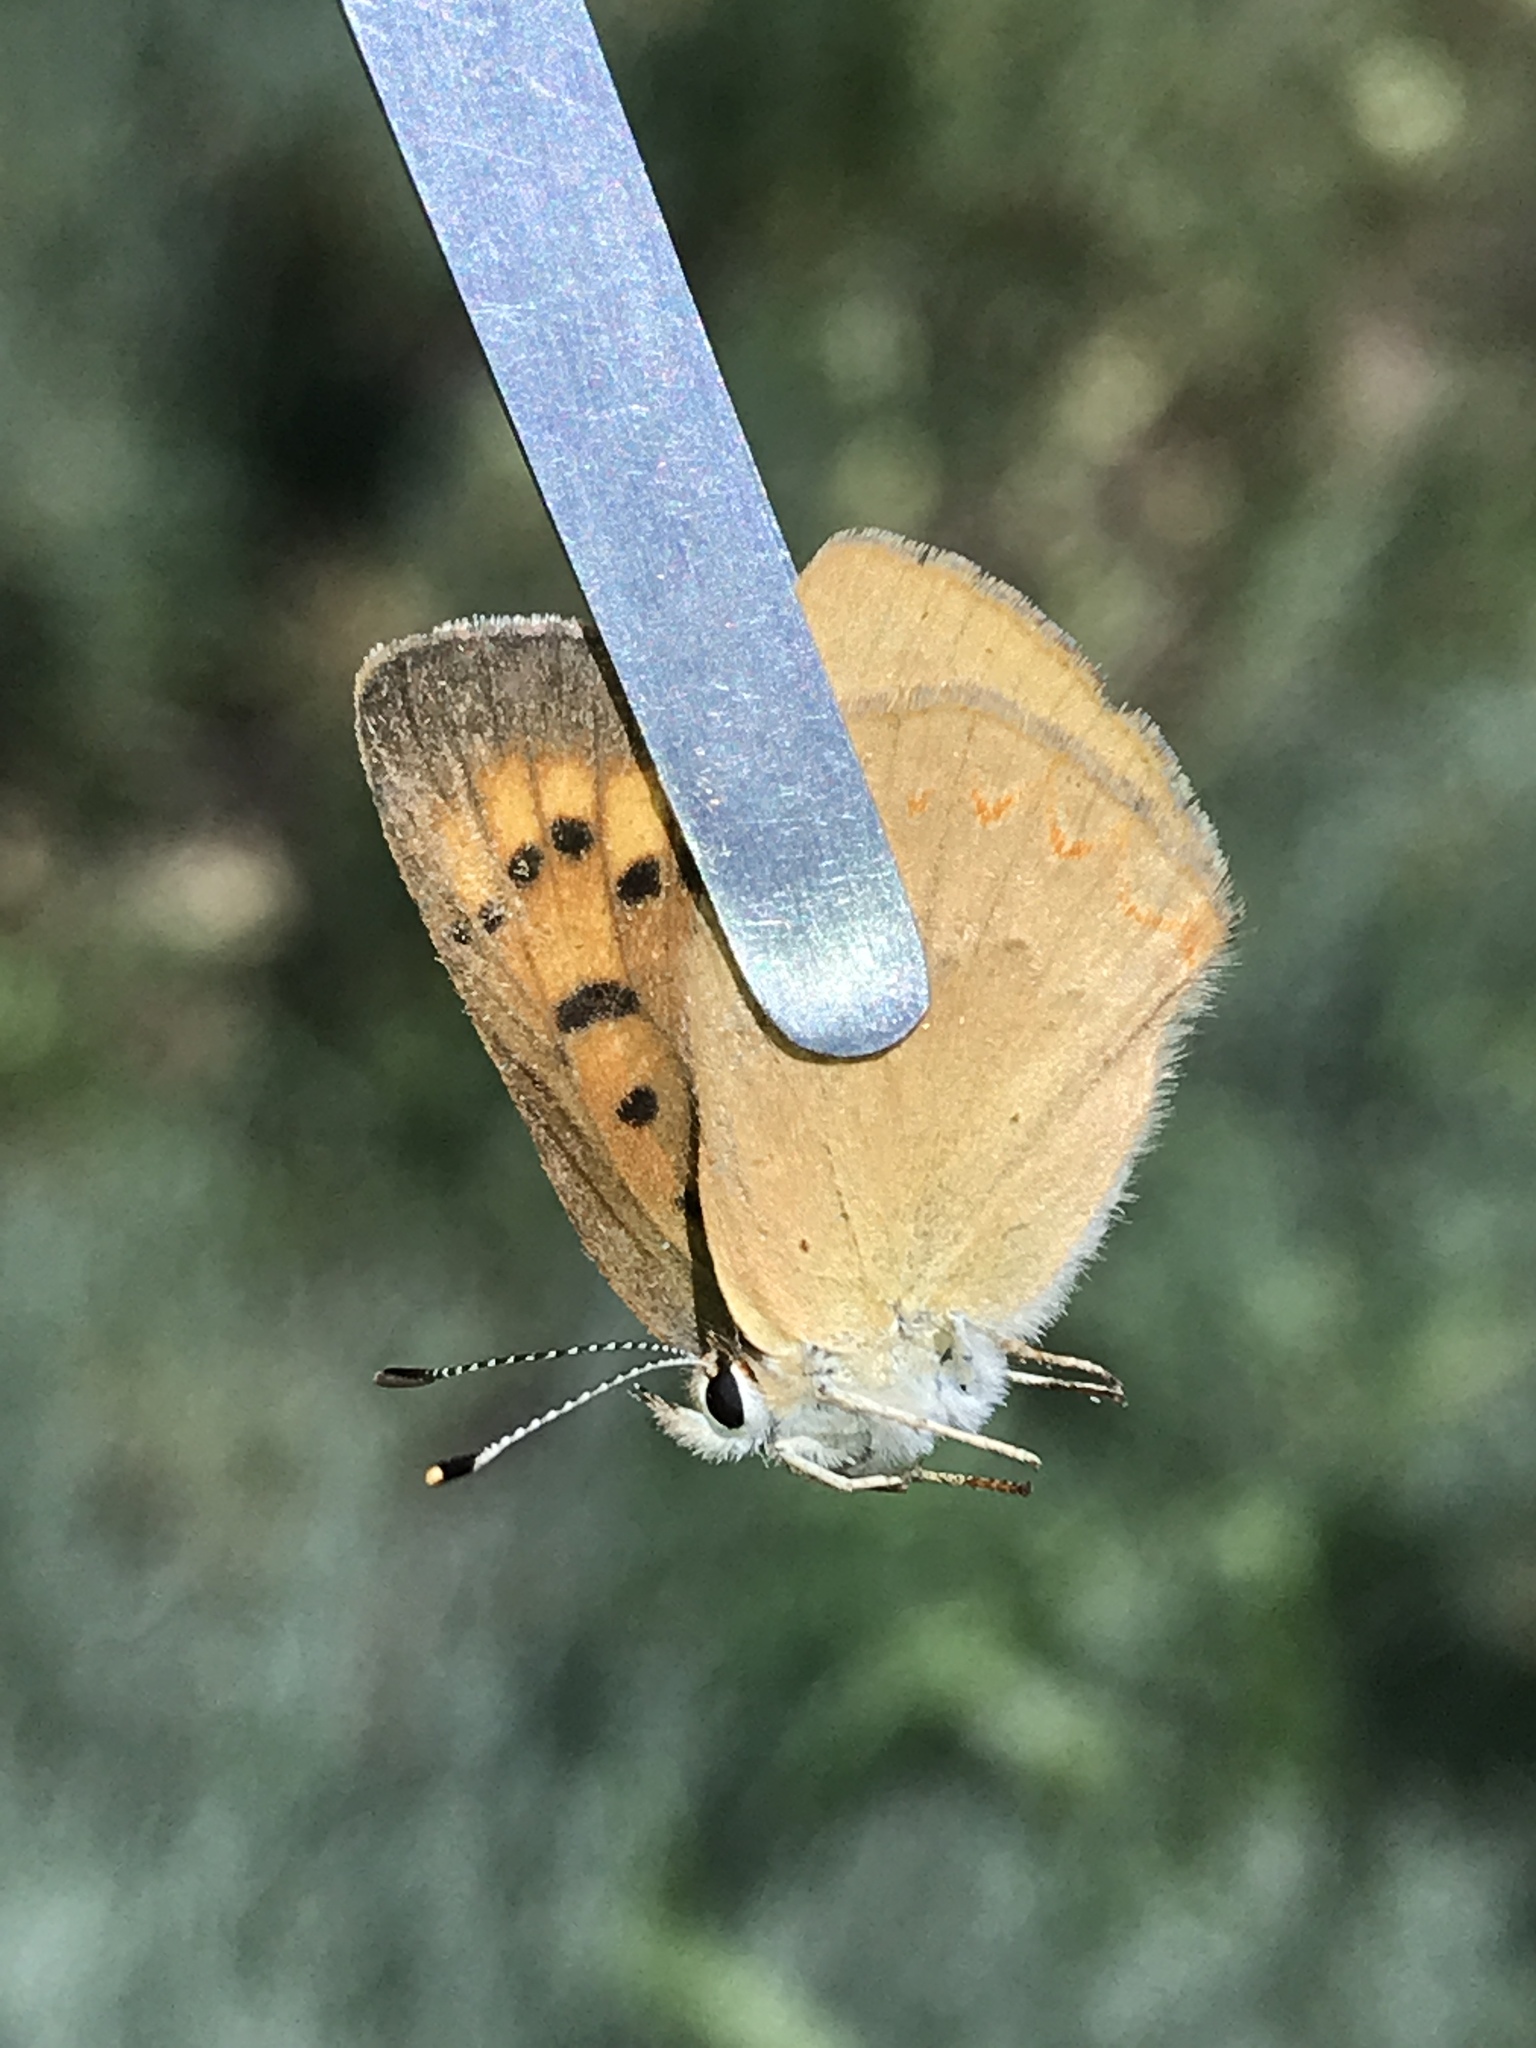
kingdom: Animalia
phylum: Arthropoda
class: Insecta
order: Lepidoptera
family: Lycaenidae
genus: Tharsalea
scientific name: Tharsalea helloides
